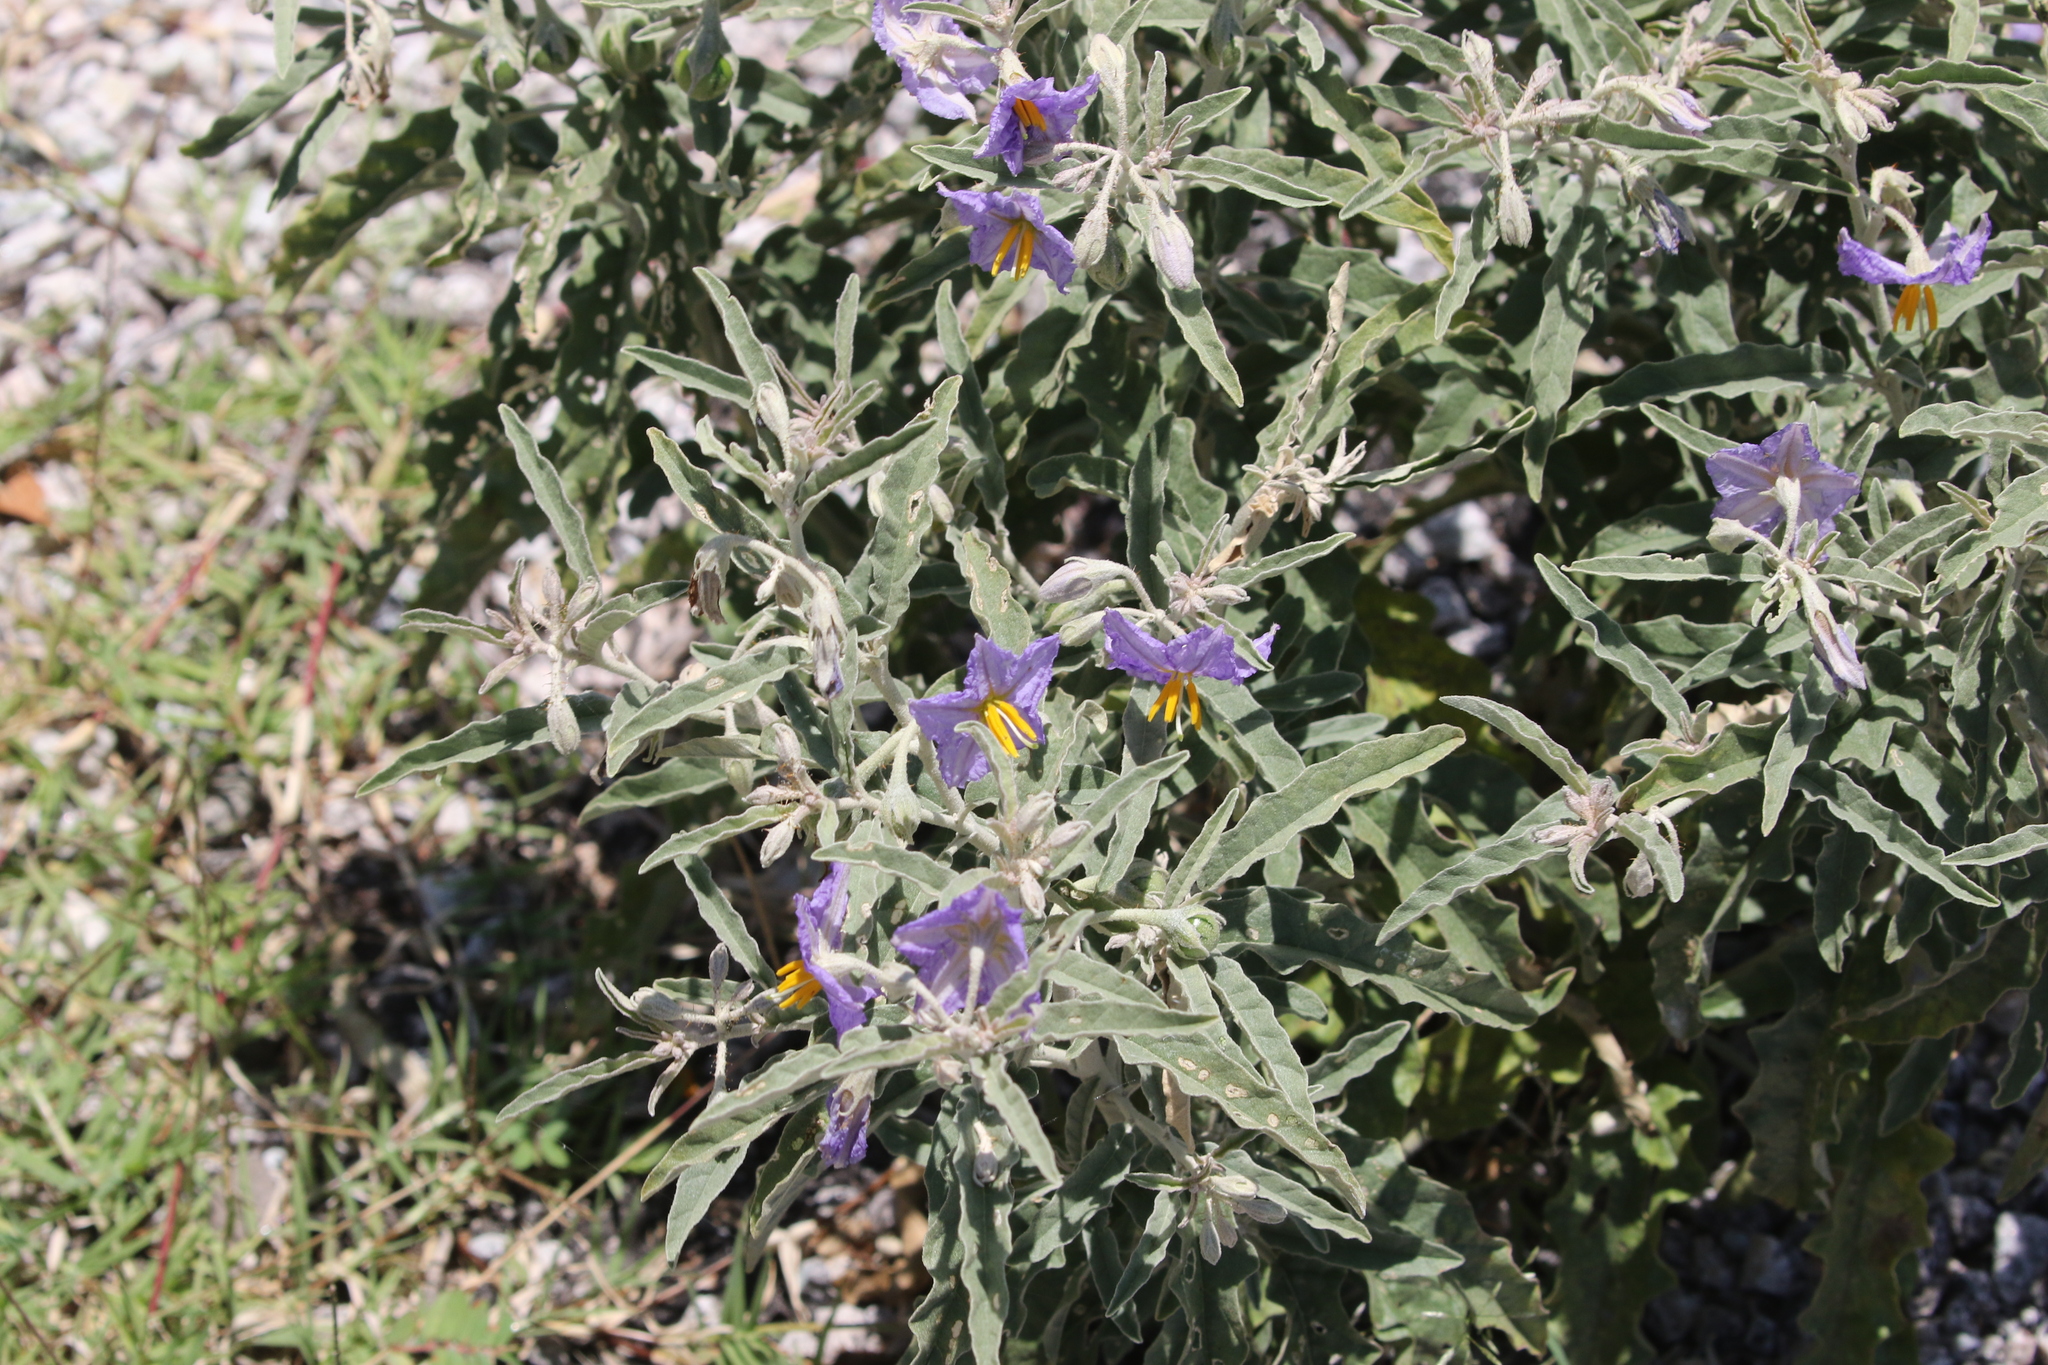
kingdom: Plantae
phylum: Tracheophyta
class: Magnoliopsida
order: Solanales
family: Solanaceae
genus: Solanum
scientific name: Solanum elaeagnifolium
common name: Silverleaf nightshade
